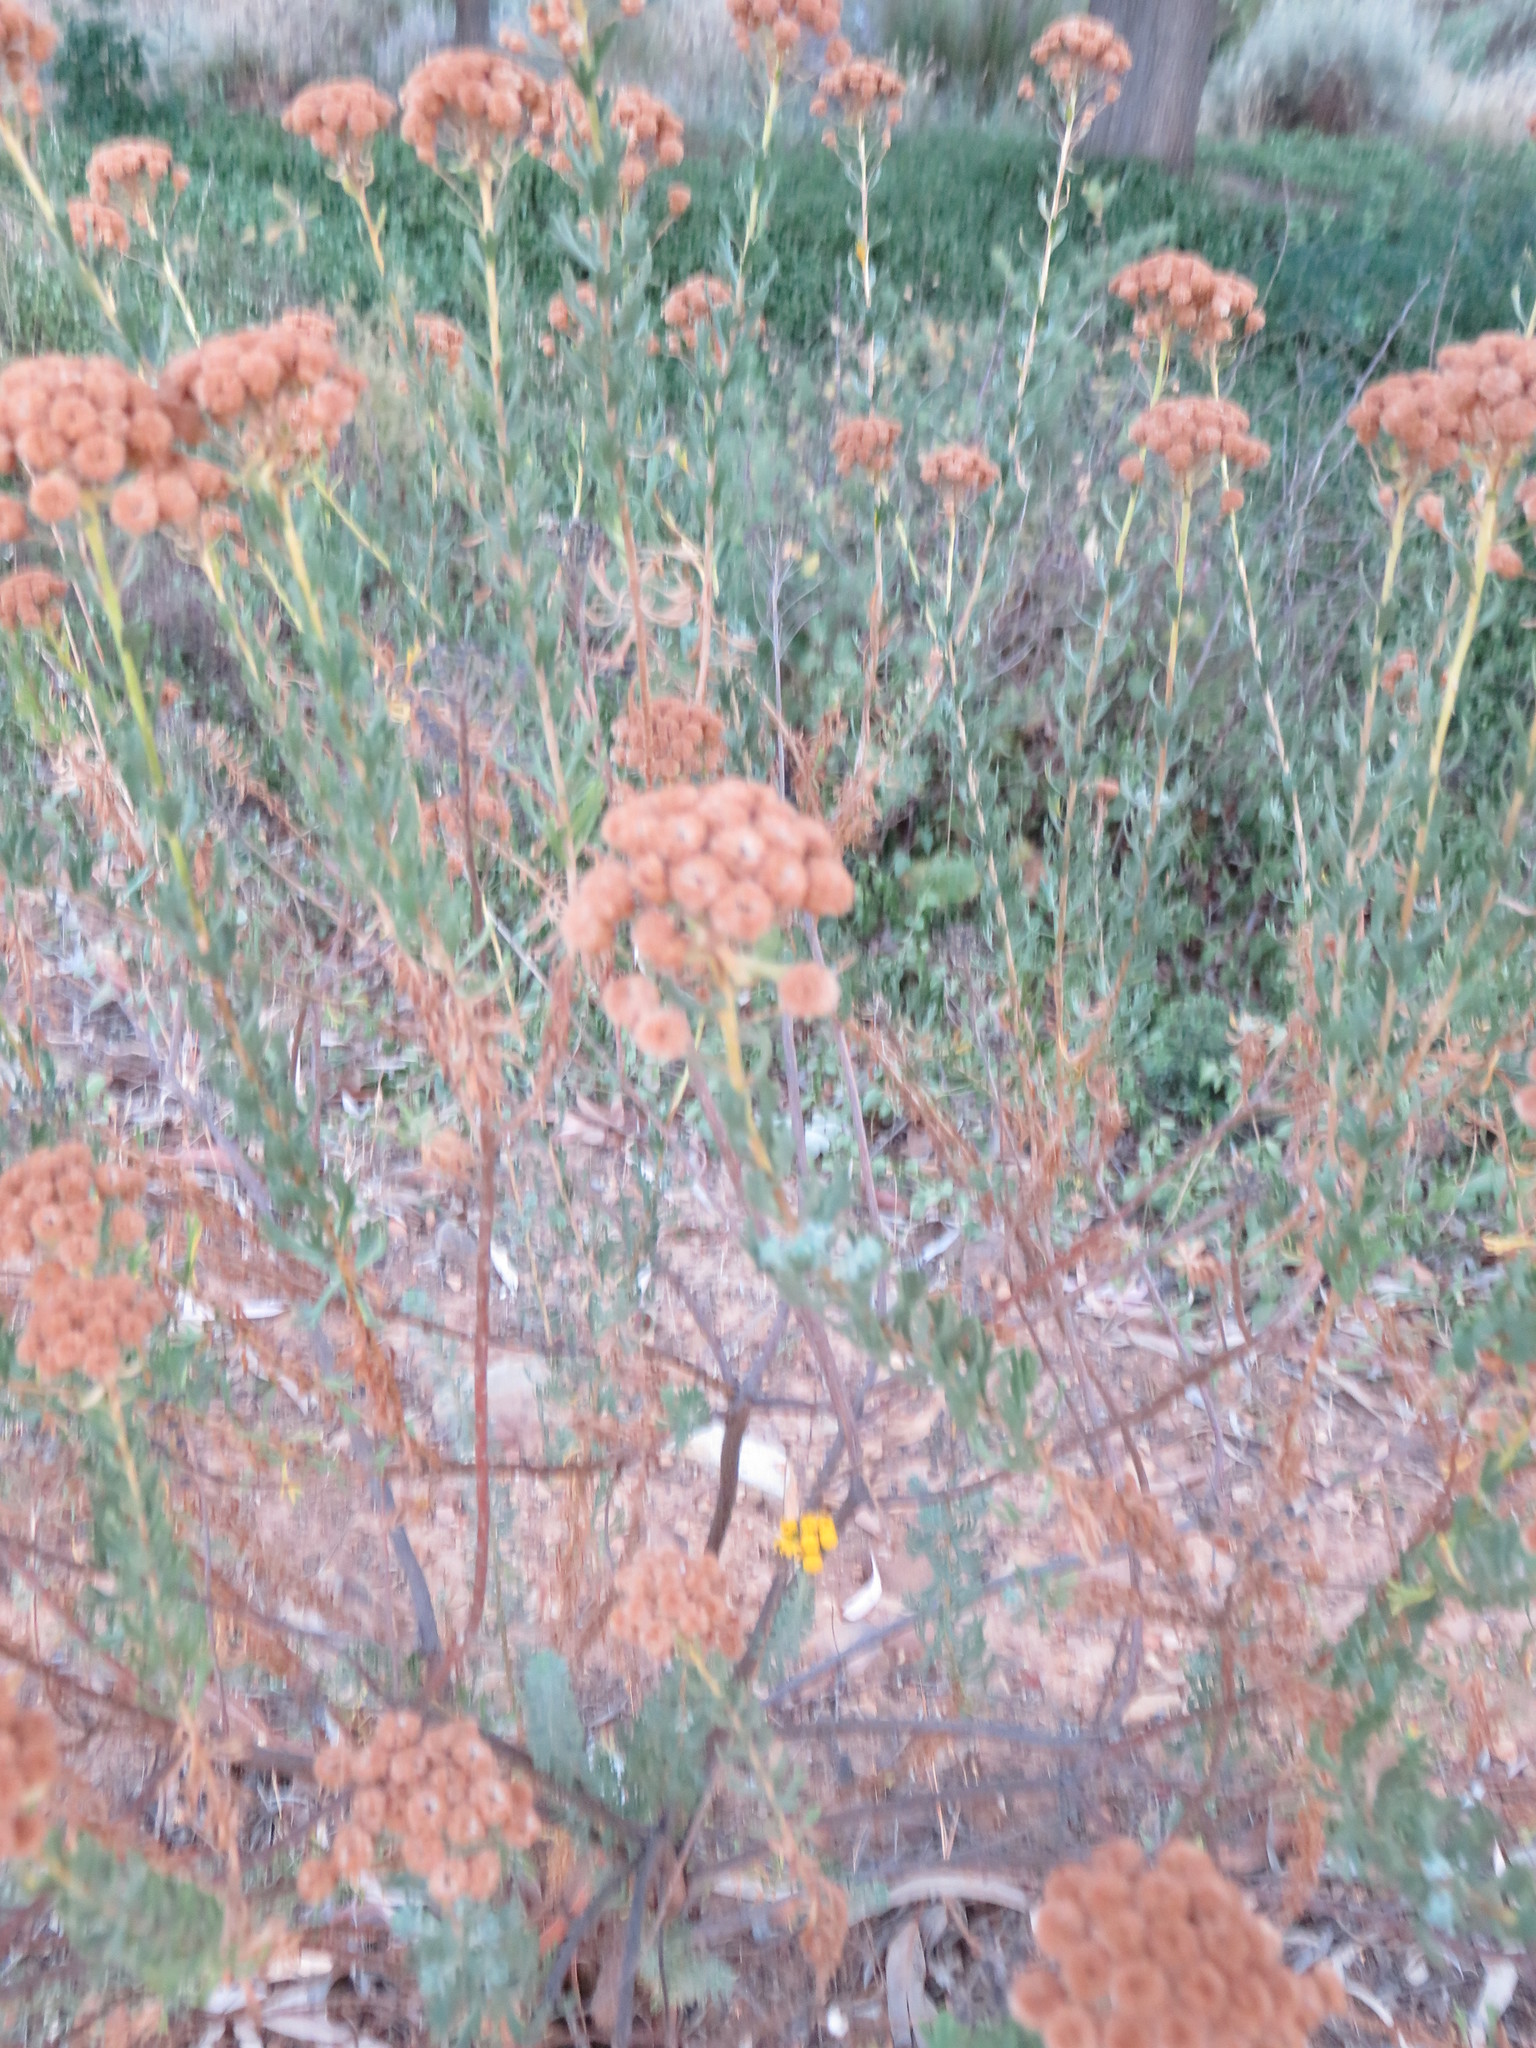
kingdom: Plantae
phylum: Tracheophyta
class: Magnoliopsida
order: Asterales
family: Asteraceae
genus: Athanasia
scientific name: Athanasia trifurcata
